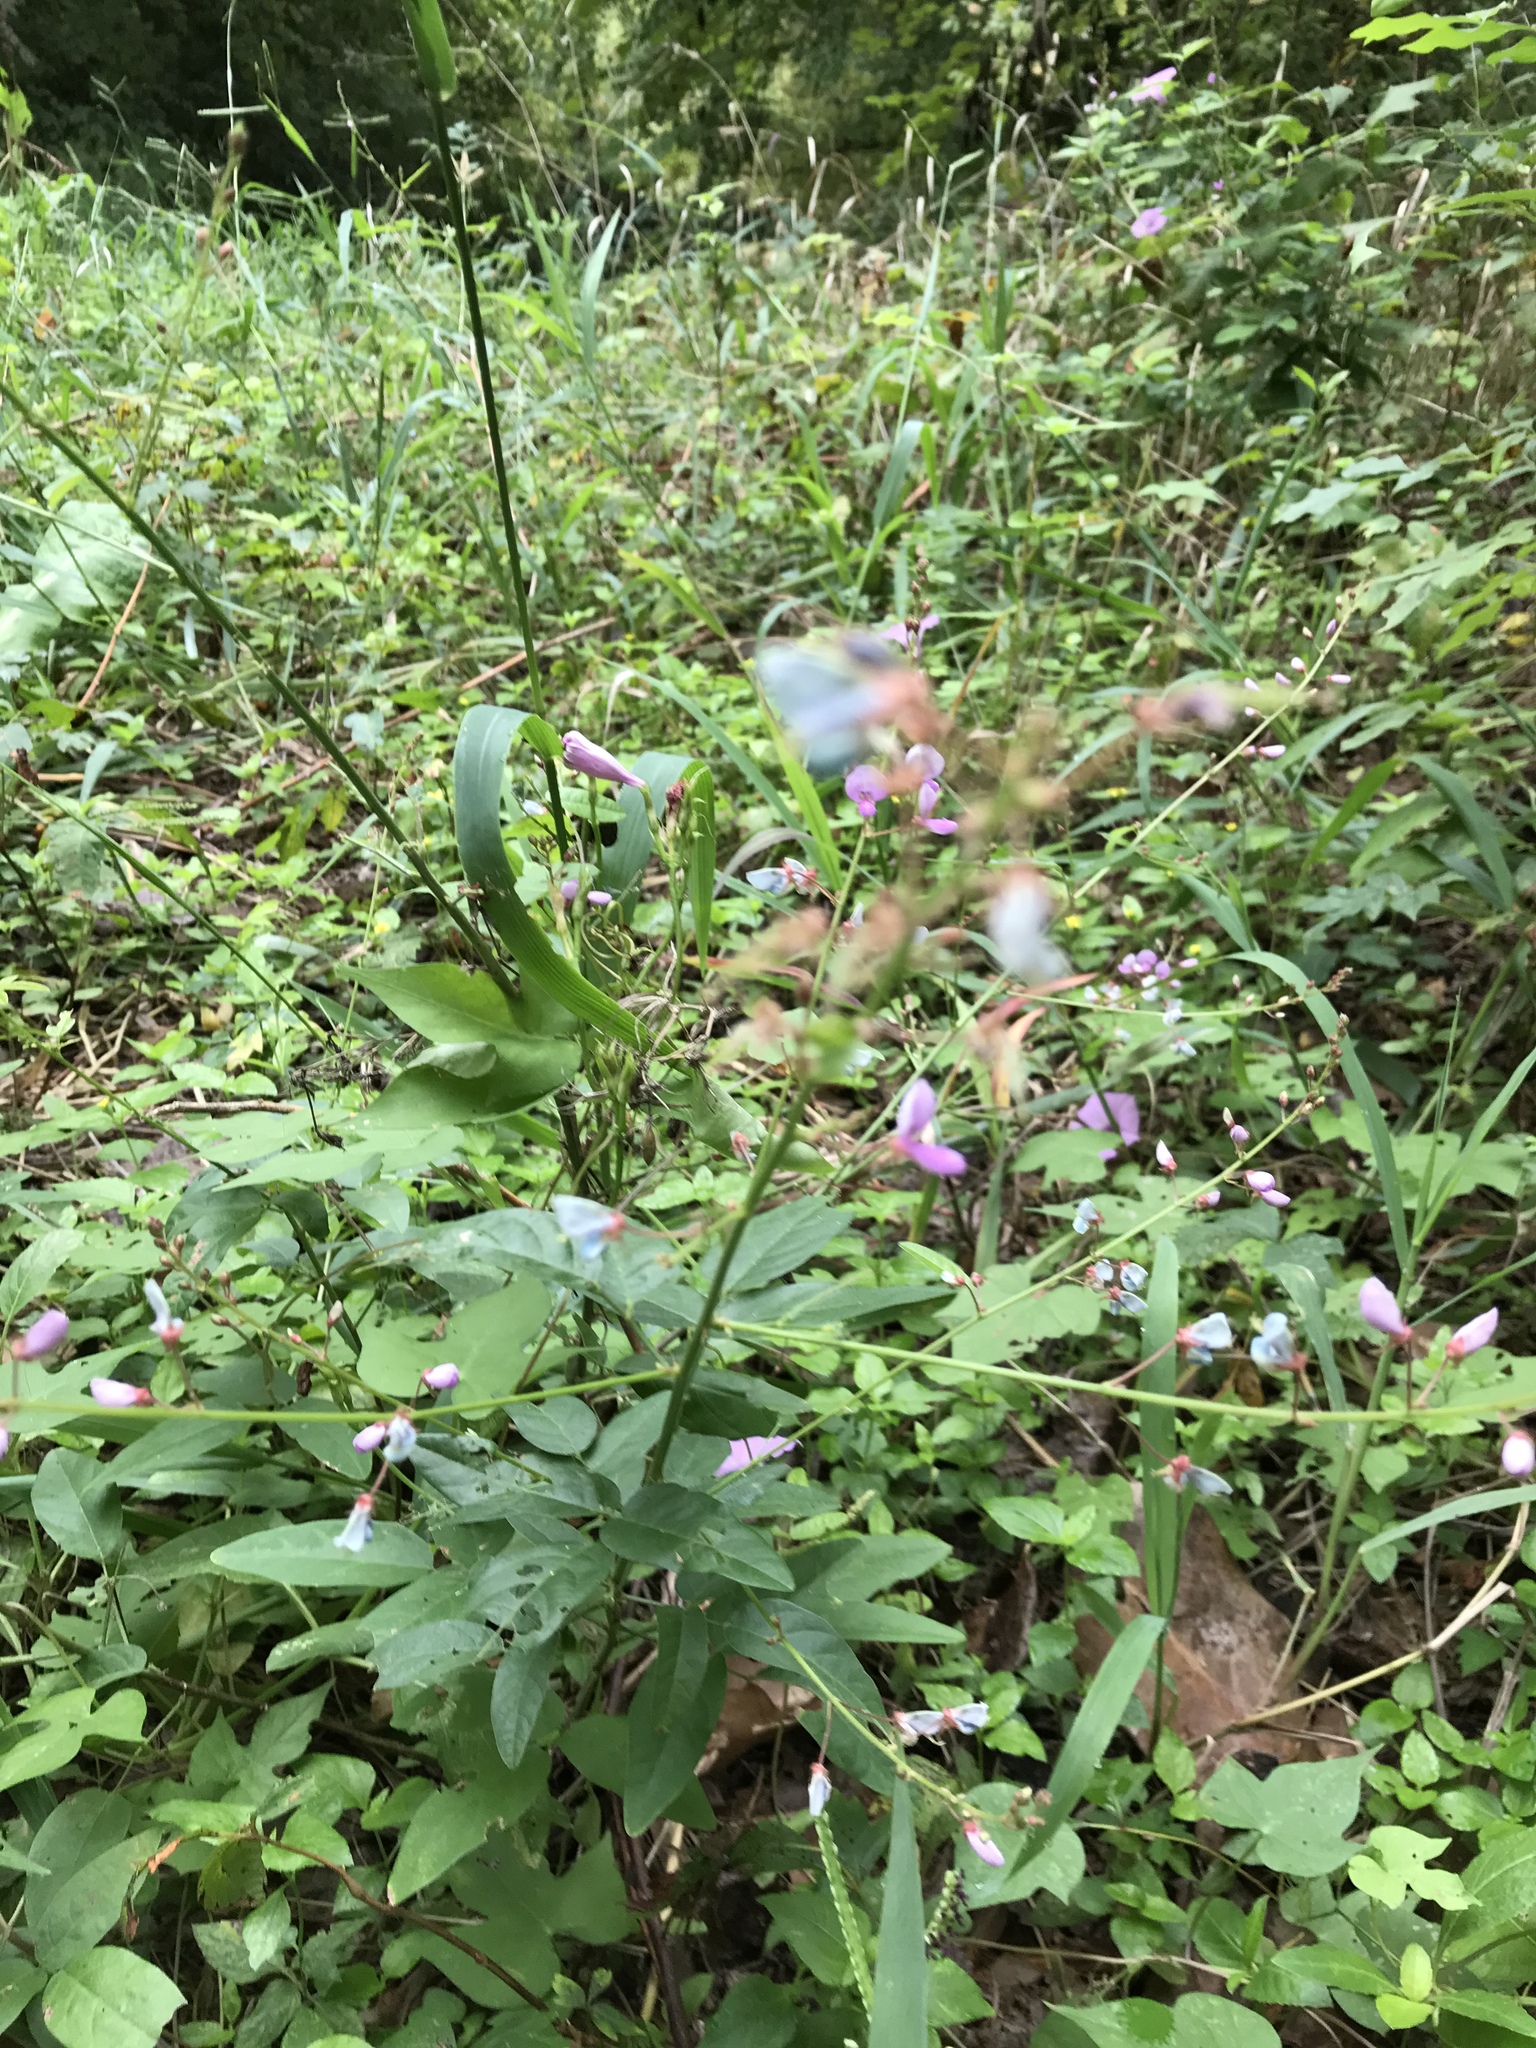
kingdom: Plantae
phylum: Tracheophyta
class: Magnoliopsida
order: Fabales
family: Fabaceae
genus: Desmodium
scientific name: Desmodium paniculatum
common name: Panicled tick-clover
